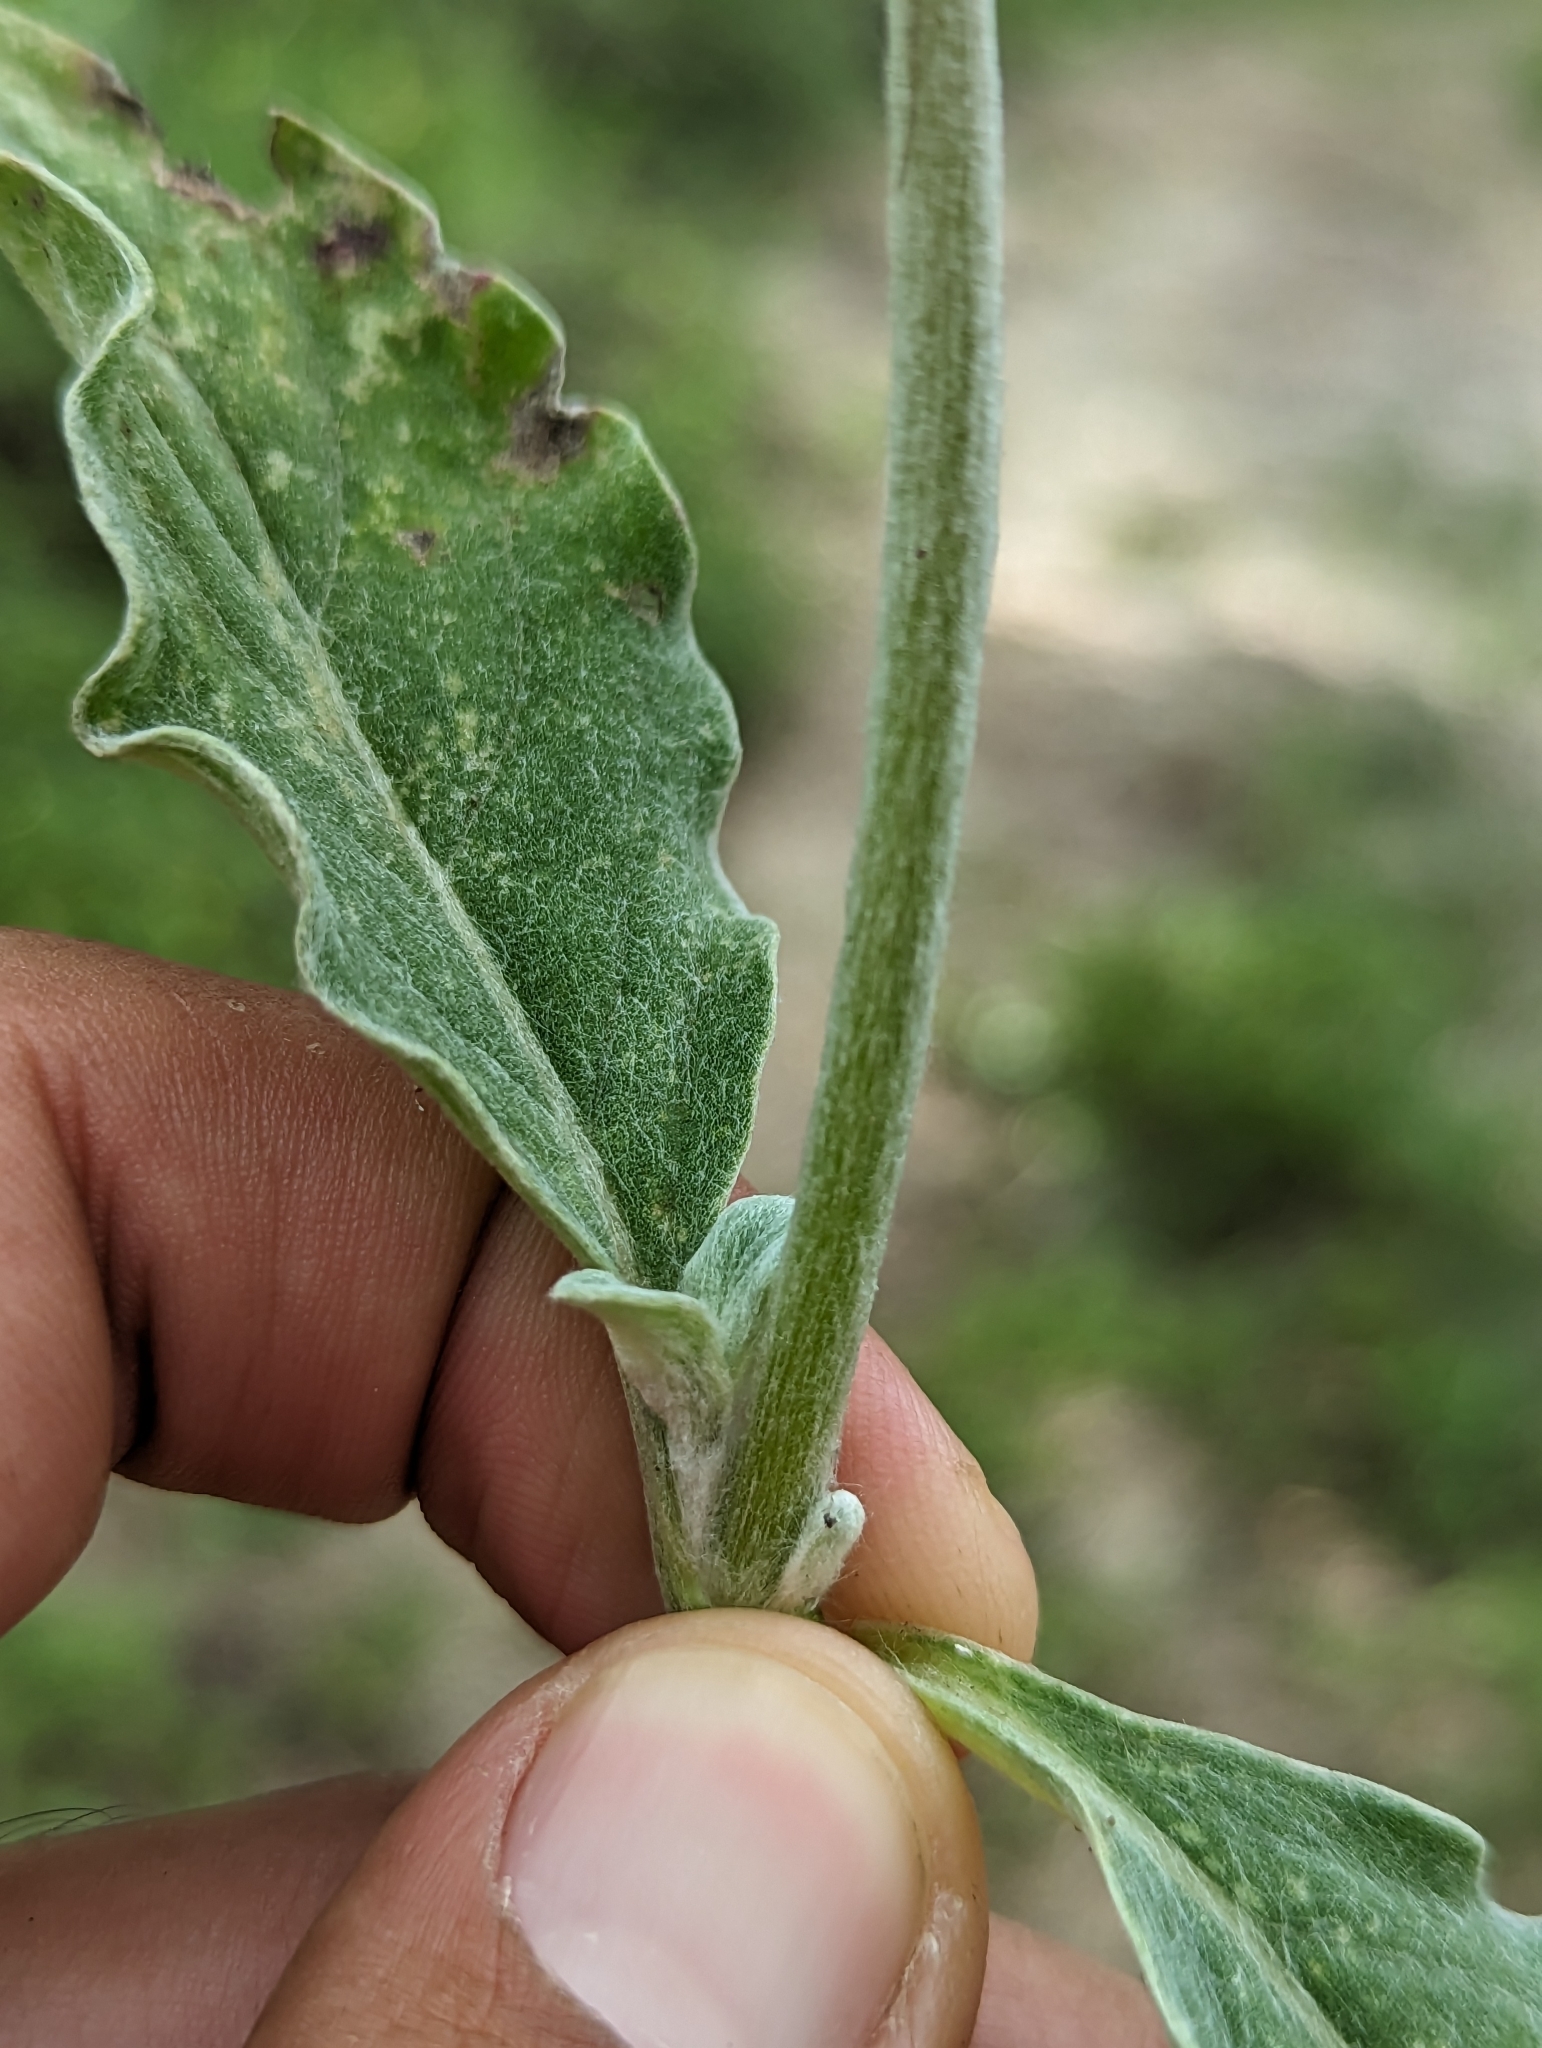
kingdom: Plantae
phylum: Tracheophyta
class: Magnoliopsida
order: Caryophyllales
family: Amaranthaceae
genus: Froelichia
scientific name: Froelichia xantusii
